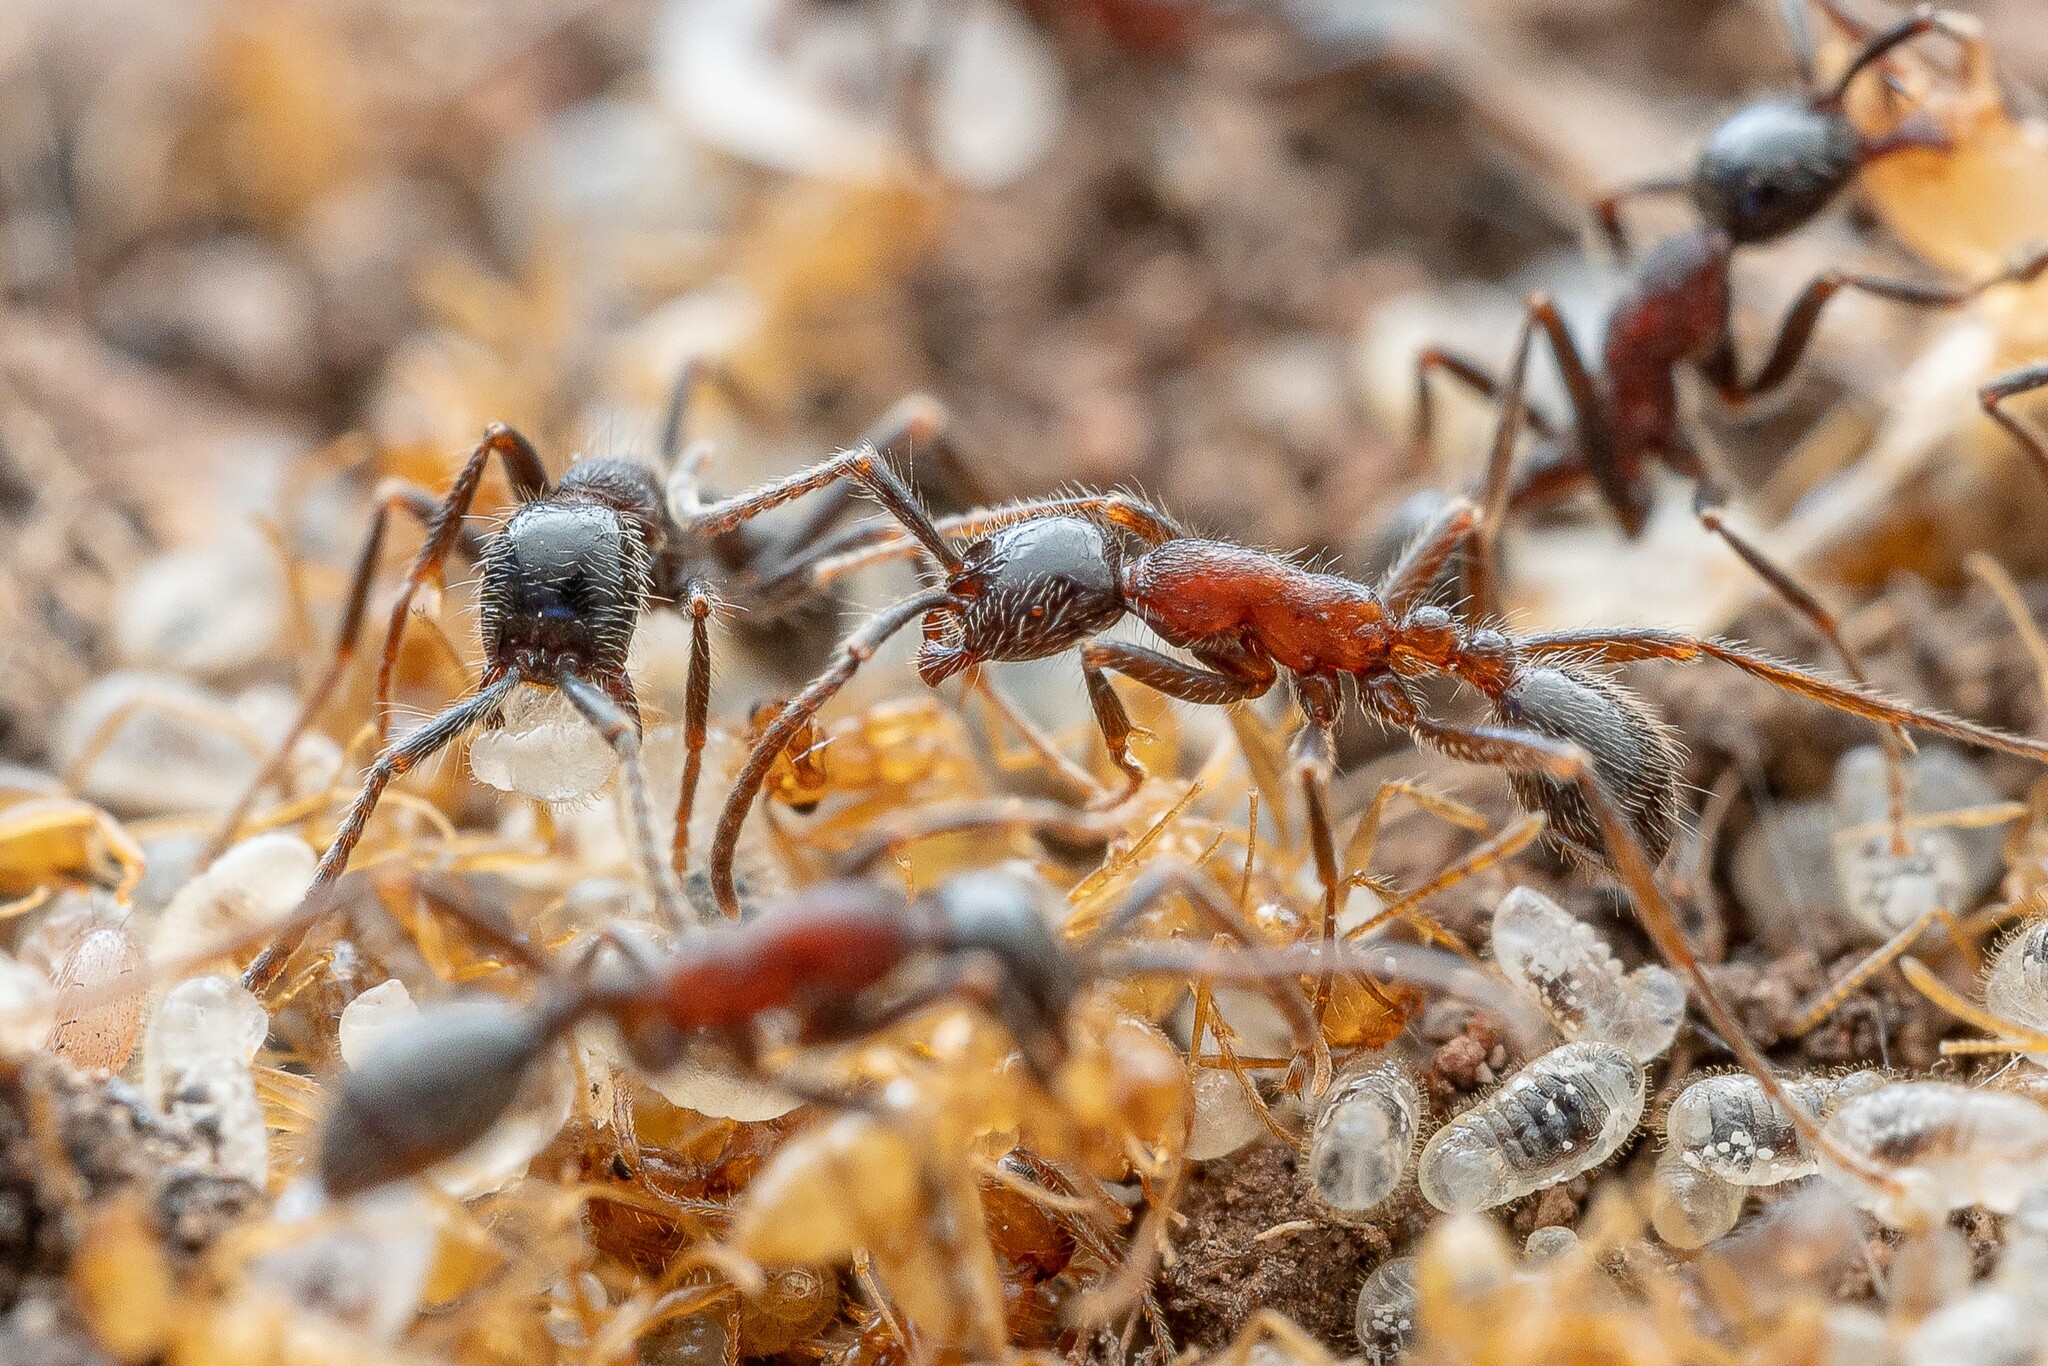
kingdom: Animalia
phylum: Arthropoda
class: Insecta
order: Hymenoptera
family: Formicidae
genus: Neivamyrmex
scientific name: Neivamyrmex melanocephalus
